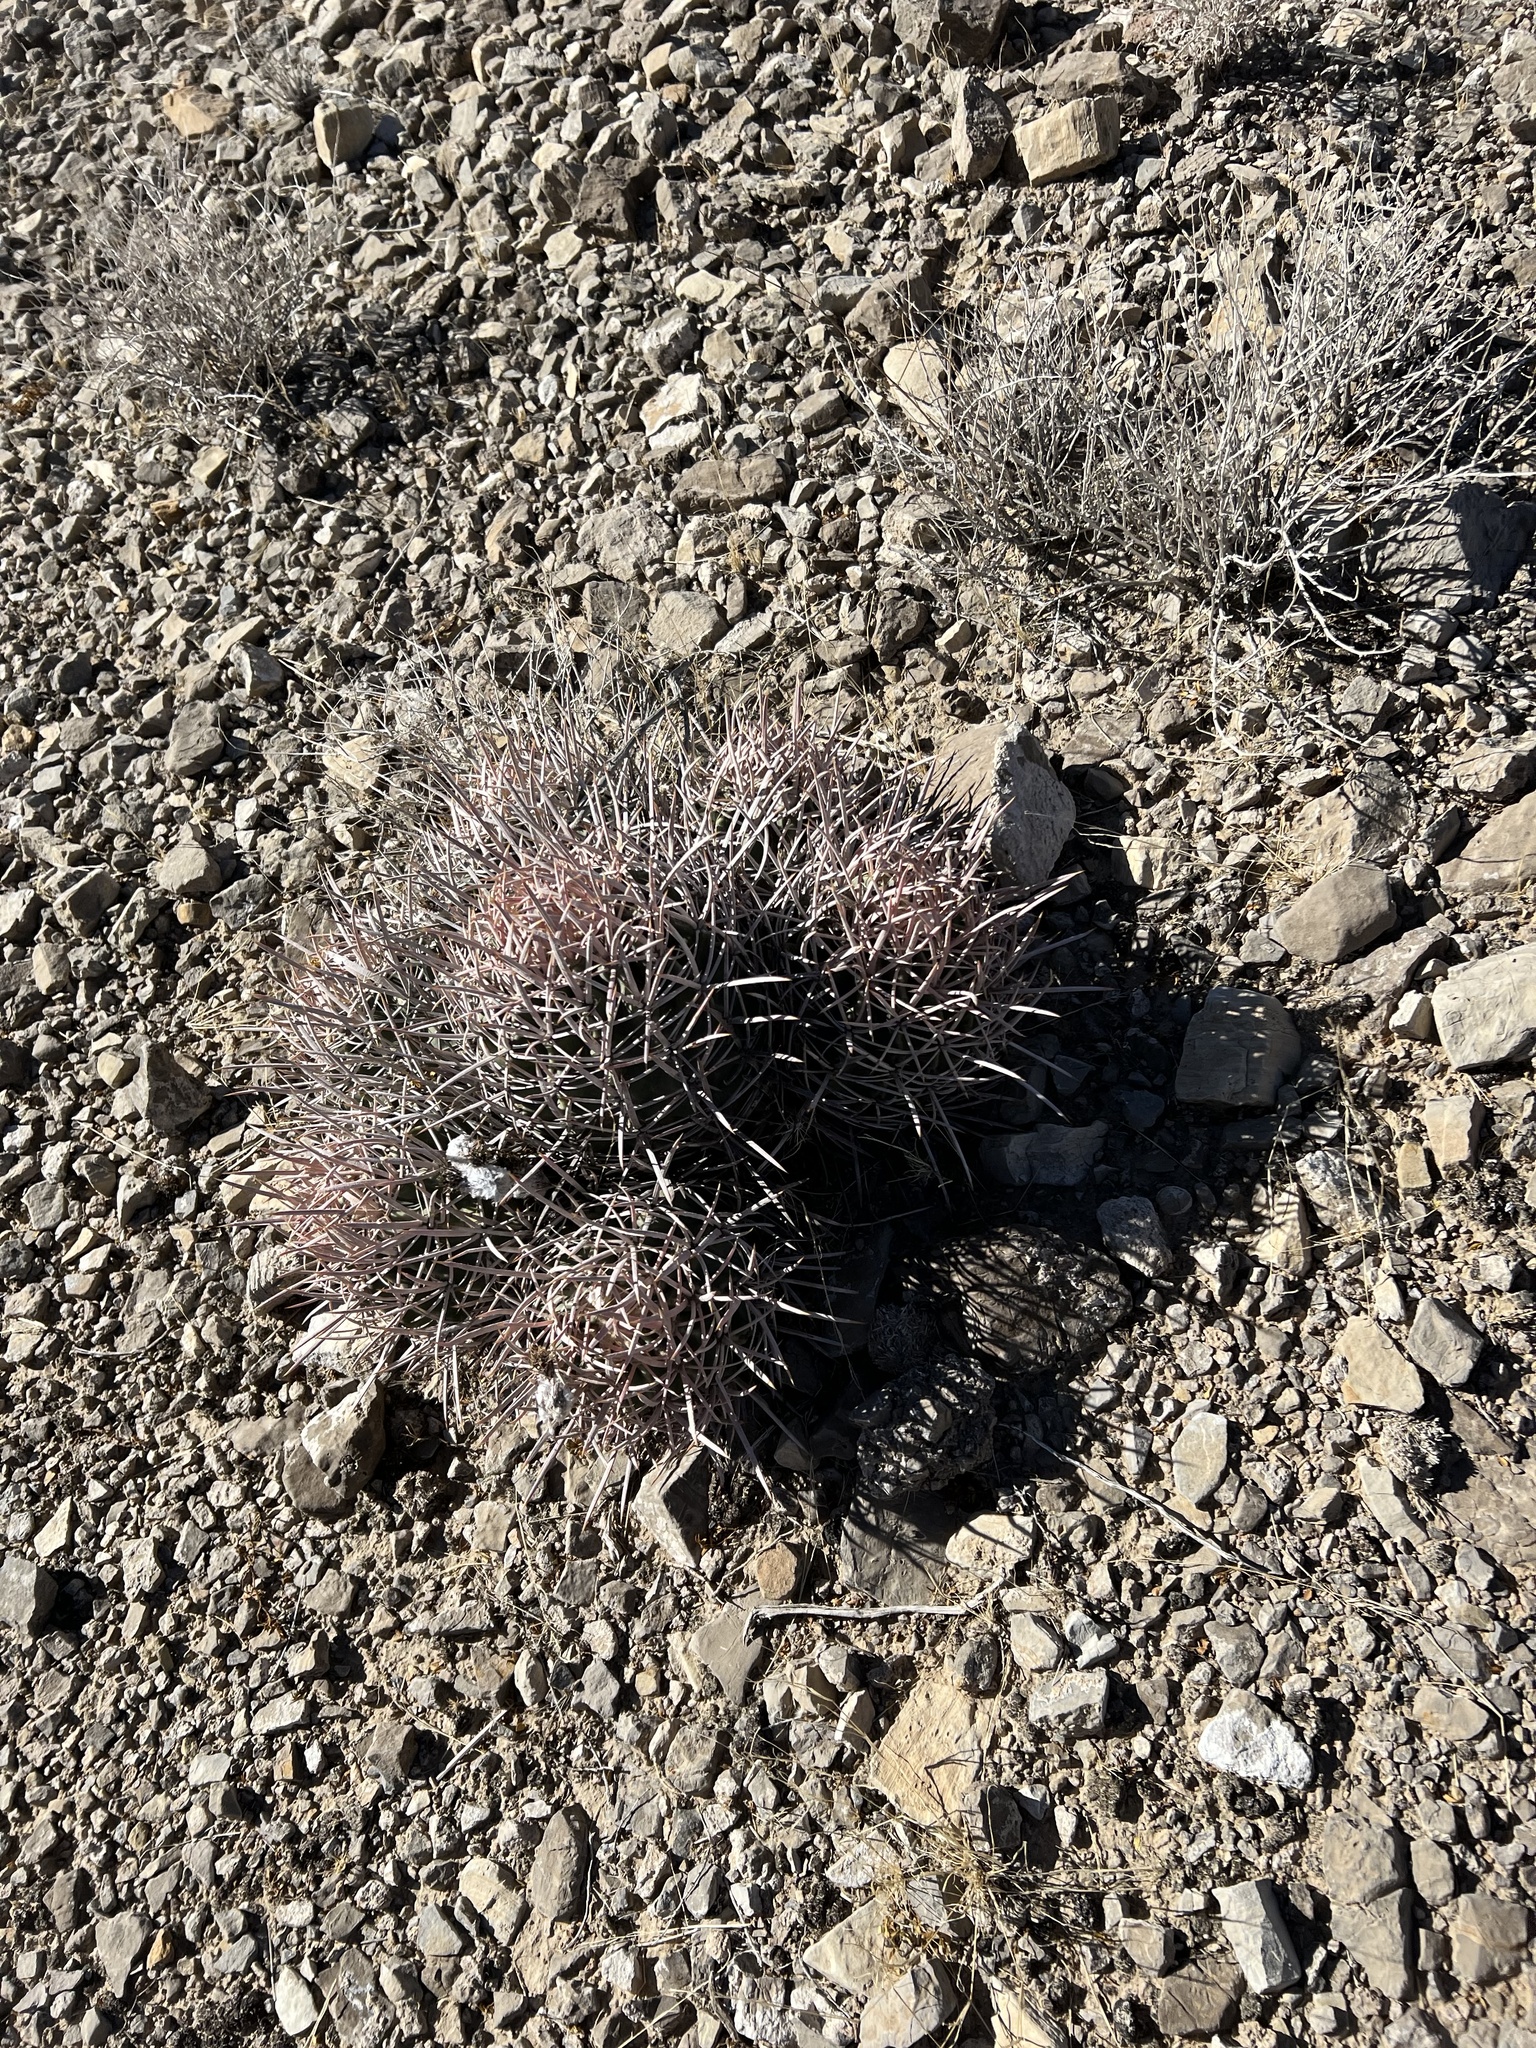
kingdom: Plantae
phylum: Tracheophyta
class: Magnoliopsida
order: Caryophyllales
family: Cactaceae
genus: Echinocactus
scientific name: Echinocactus polycephalus
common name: Cottontop cactus
